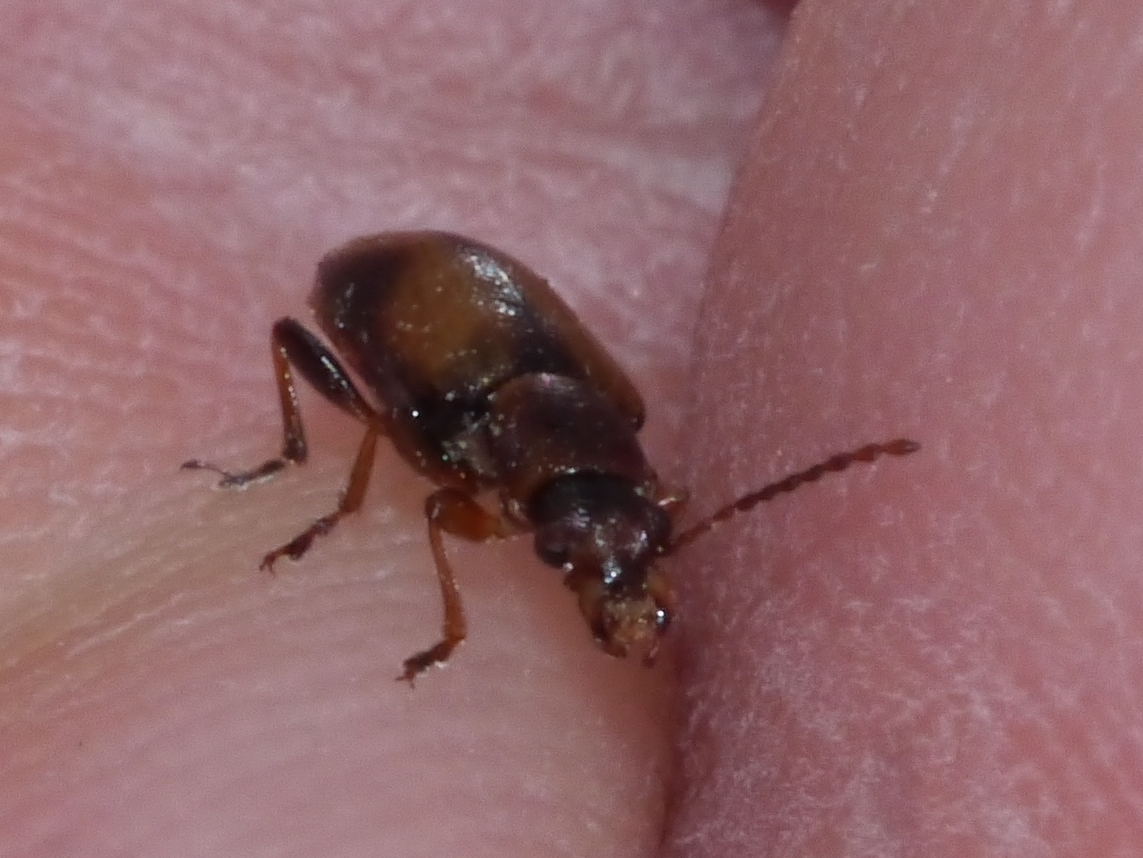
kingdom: Animalia
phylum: Arthropoda
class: Insecta
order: Coleoptera
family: Orsodacnidae
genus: Orsodacne
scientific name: Orsodacne atra
